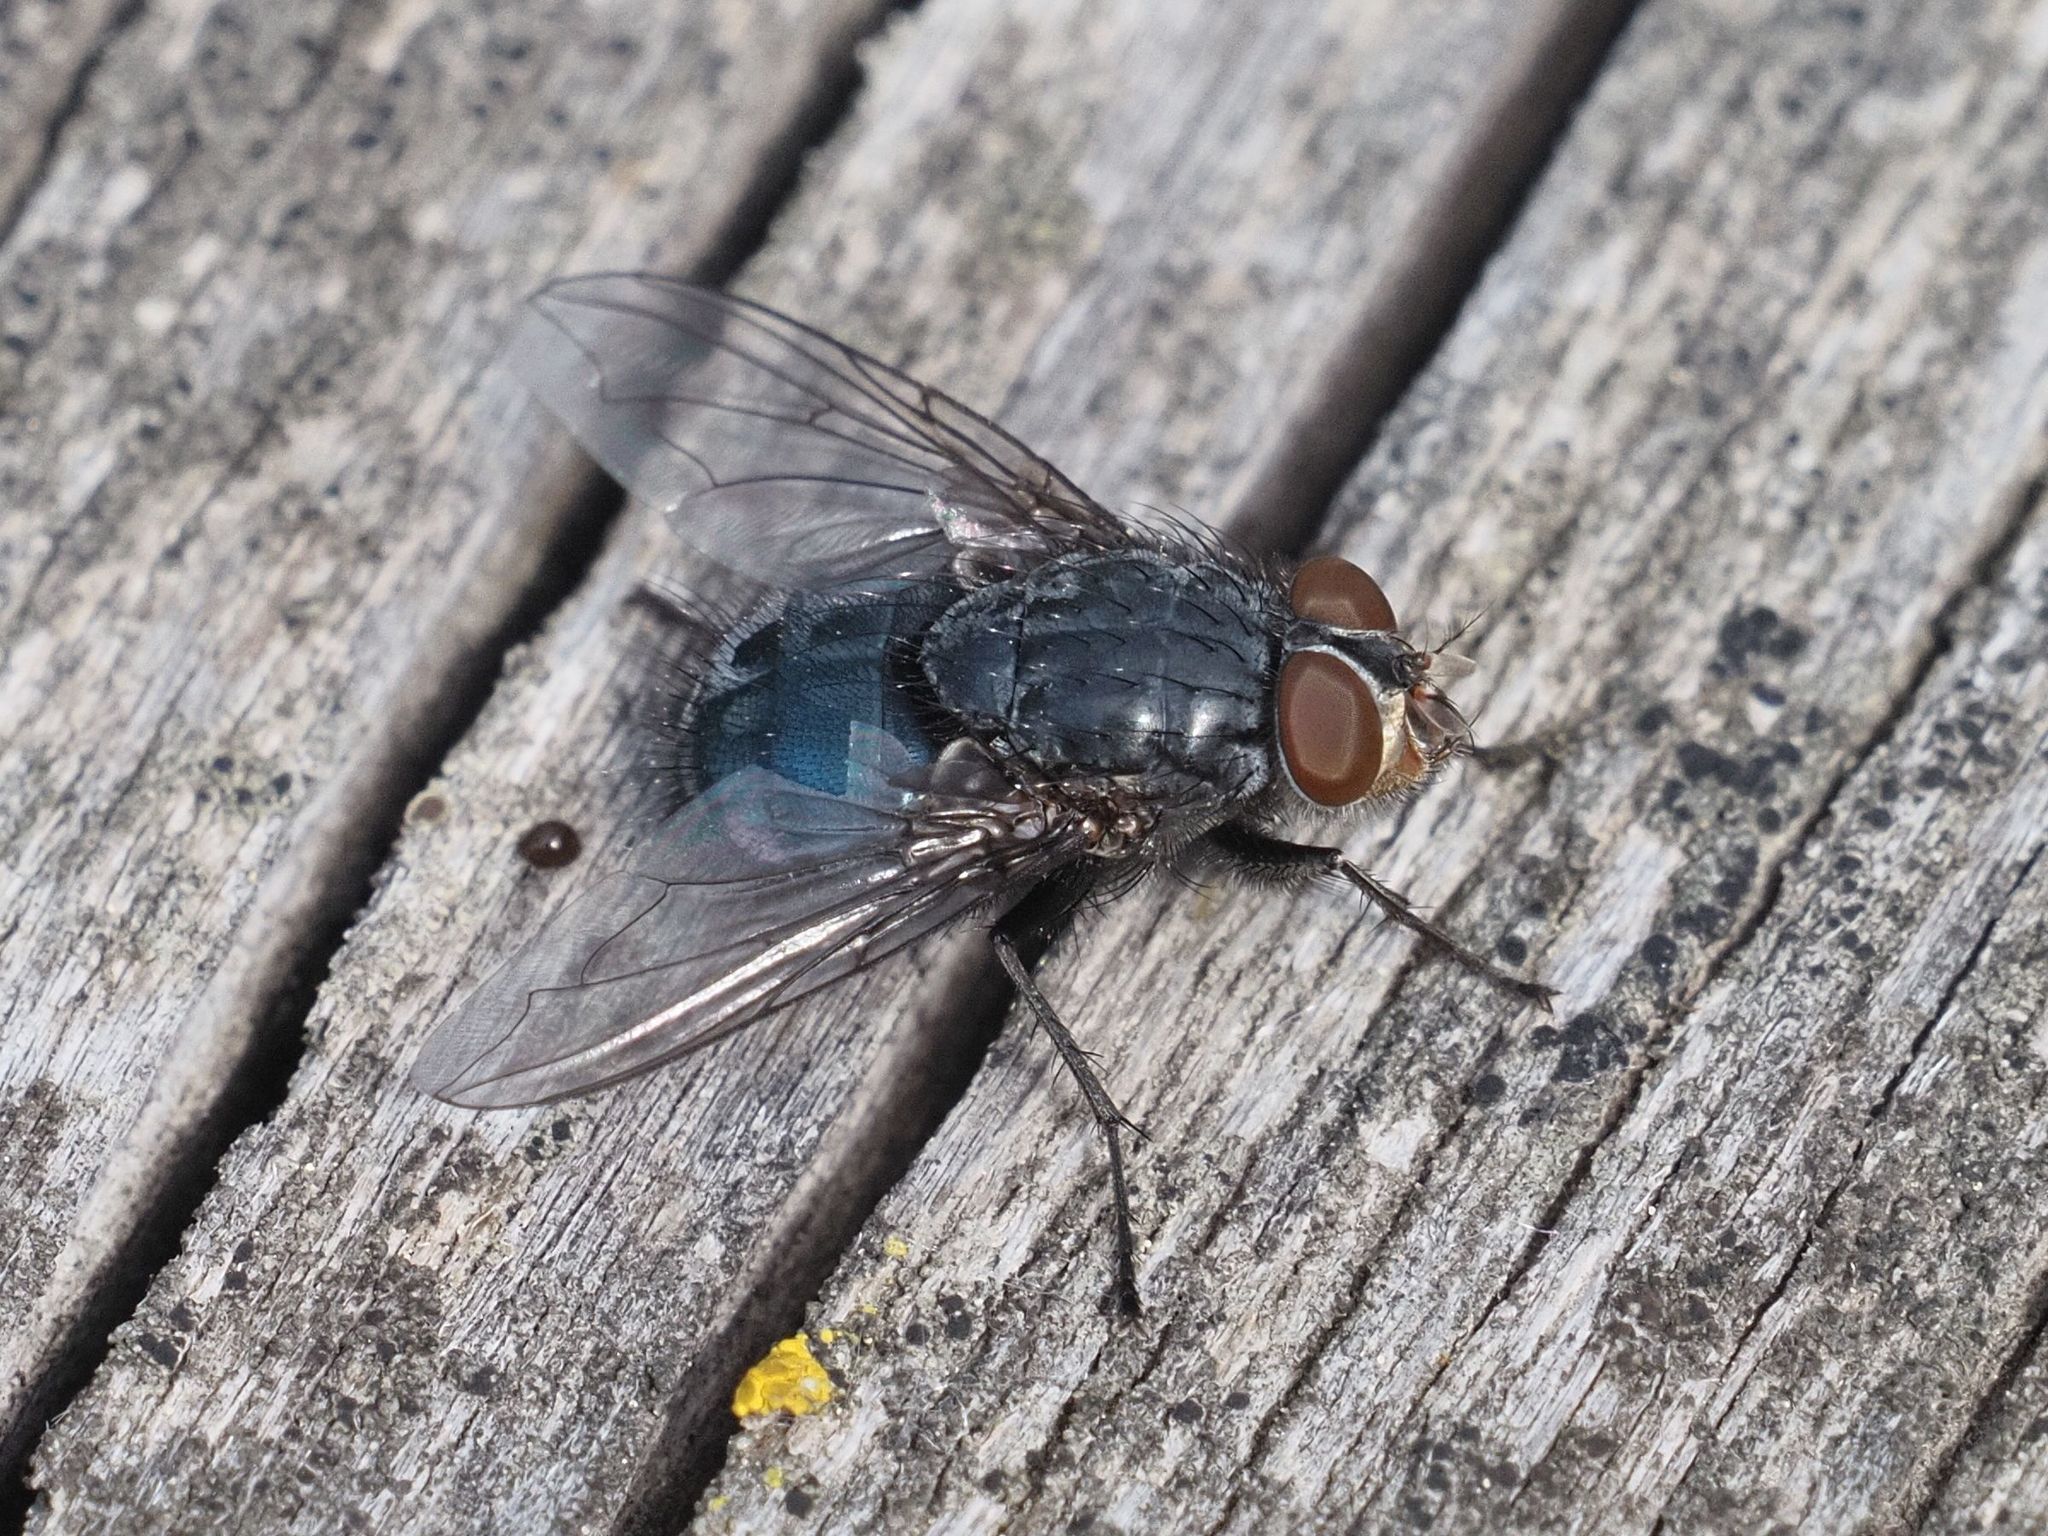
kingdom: Animalia
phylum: Arthropoda
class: Insecta
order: Diptera
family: Calliphoridae
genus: Calliphora
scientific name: Calliphora vicina
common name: Common blow flie
